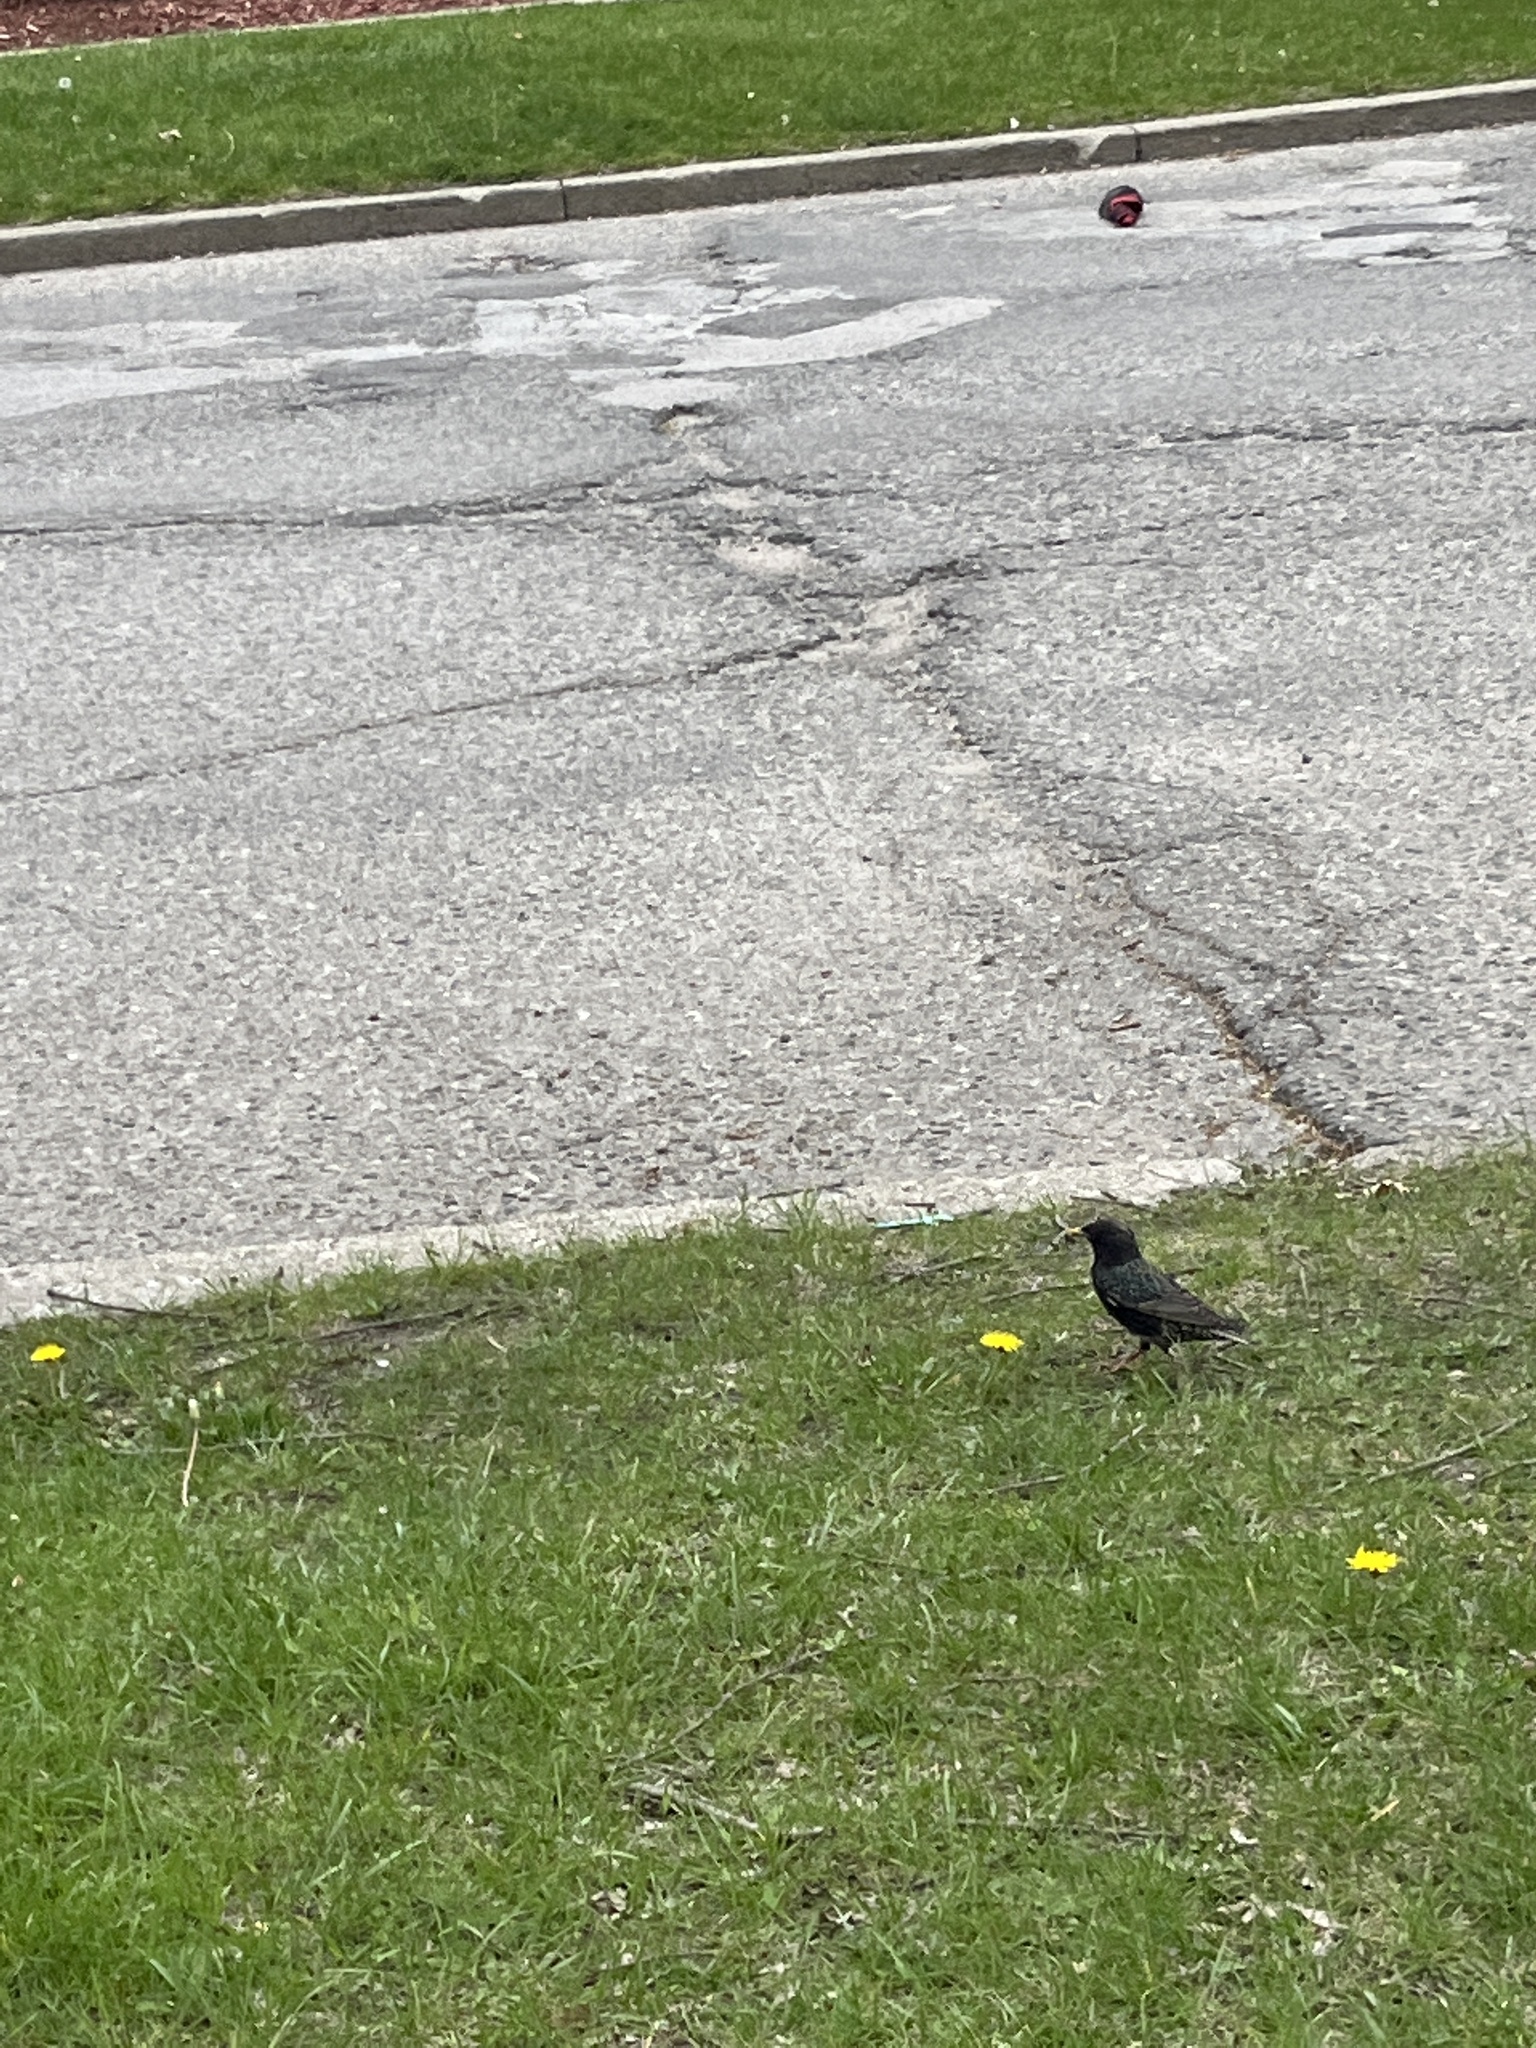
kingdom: Animalia
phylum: Chordata
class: Aves
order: Passeriformes
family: Sturnidae
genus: Sturnus
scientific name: Sturnus vulgaris
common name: Common starling
